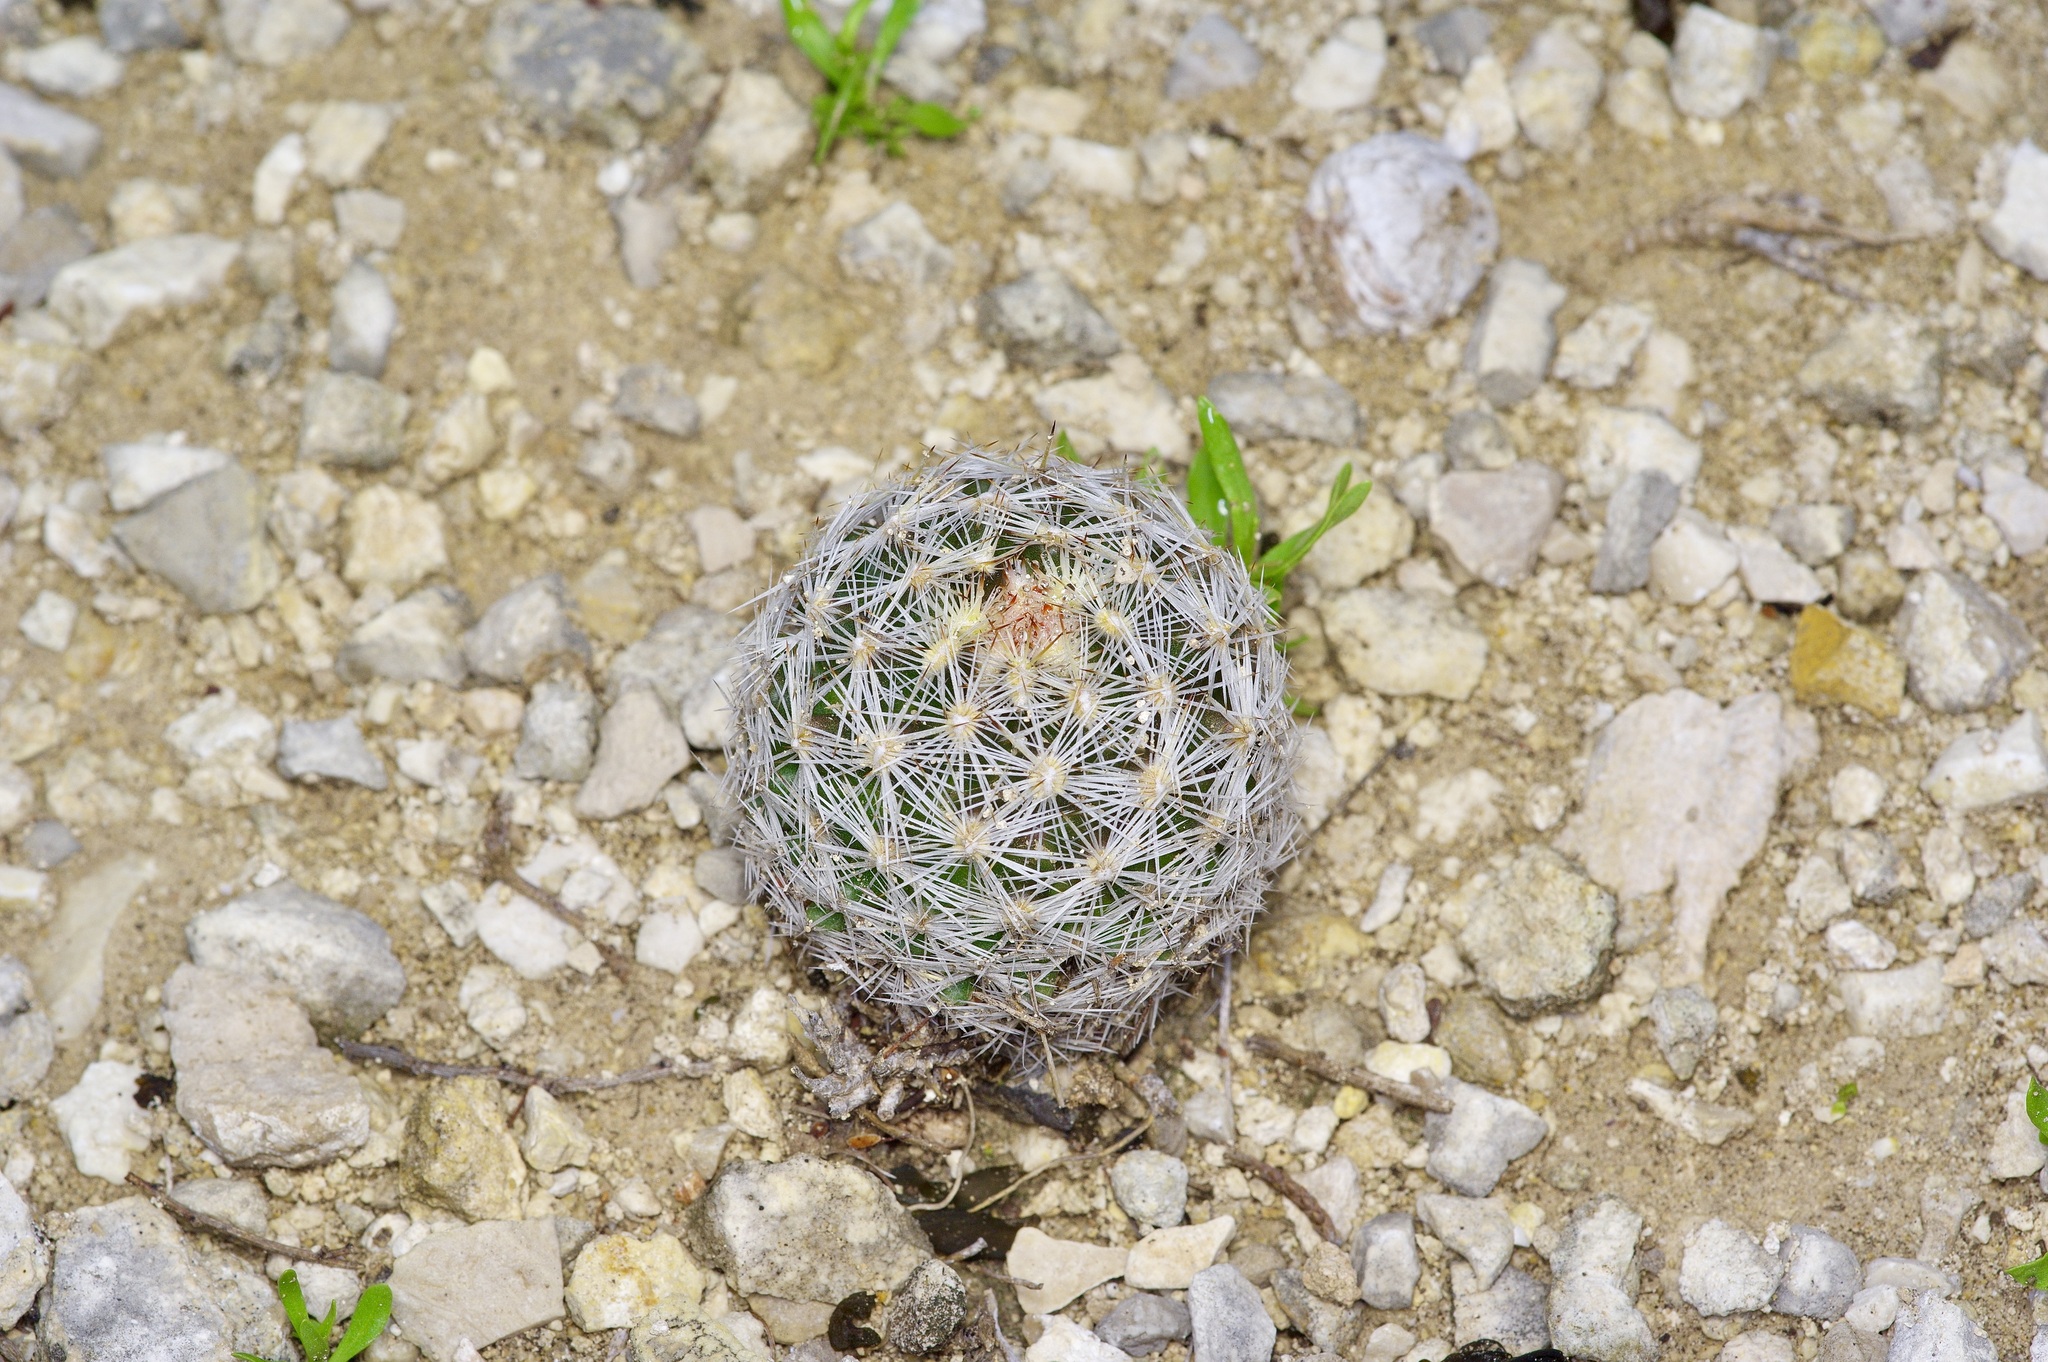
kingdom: Plantae
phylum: Tracheophyta
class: Magnoliopsida
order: Caryophyllales
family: Cactaceae
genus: Pelecyphora
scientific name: Pelecyphora vivipara
